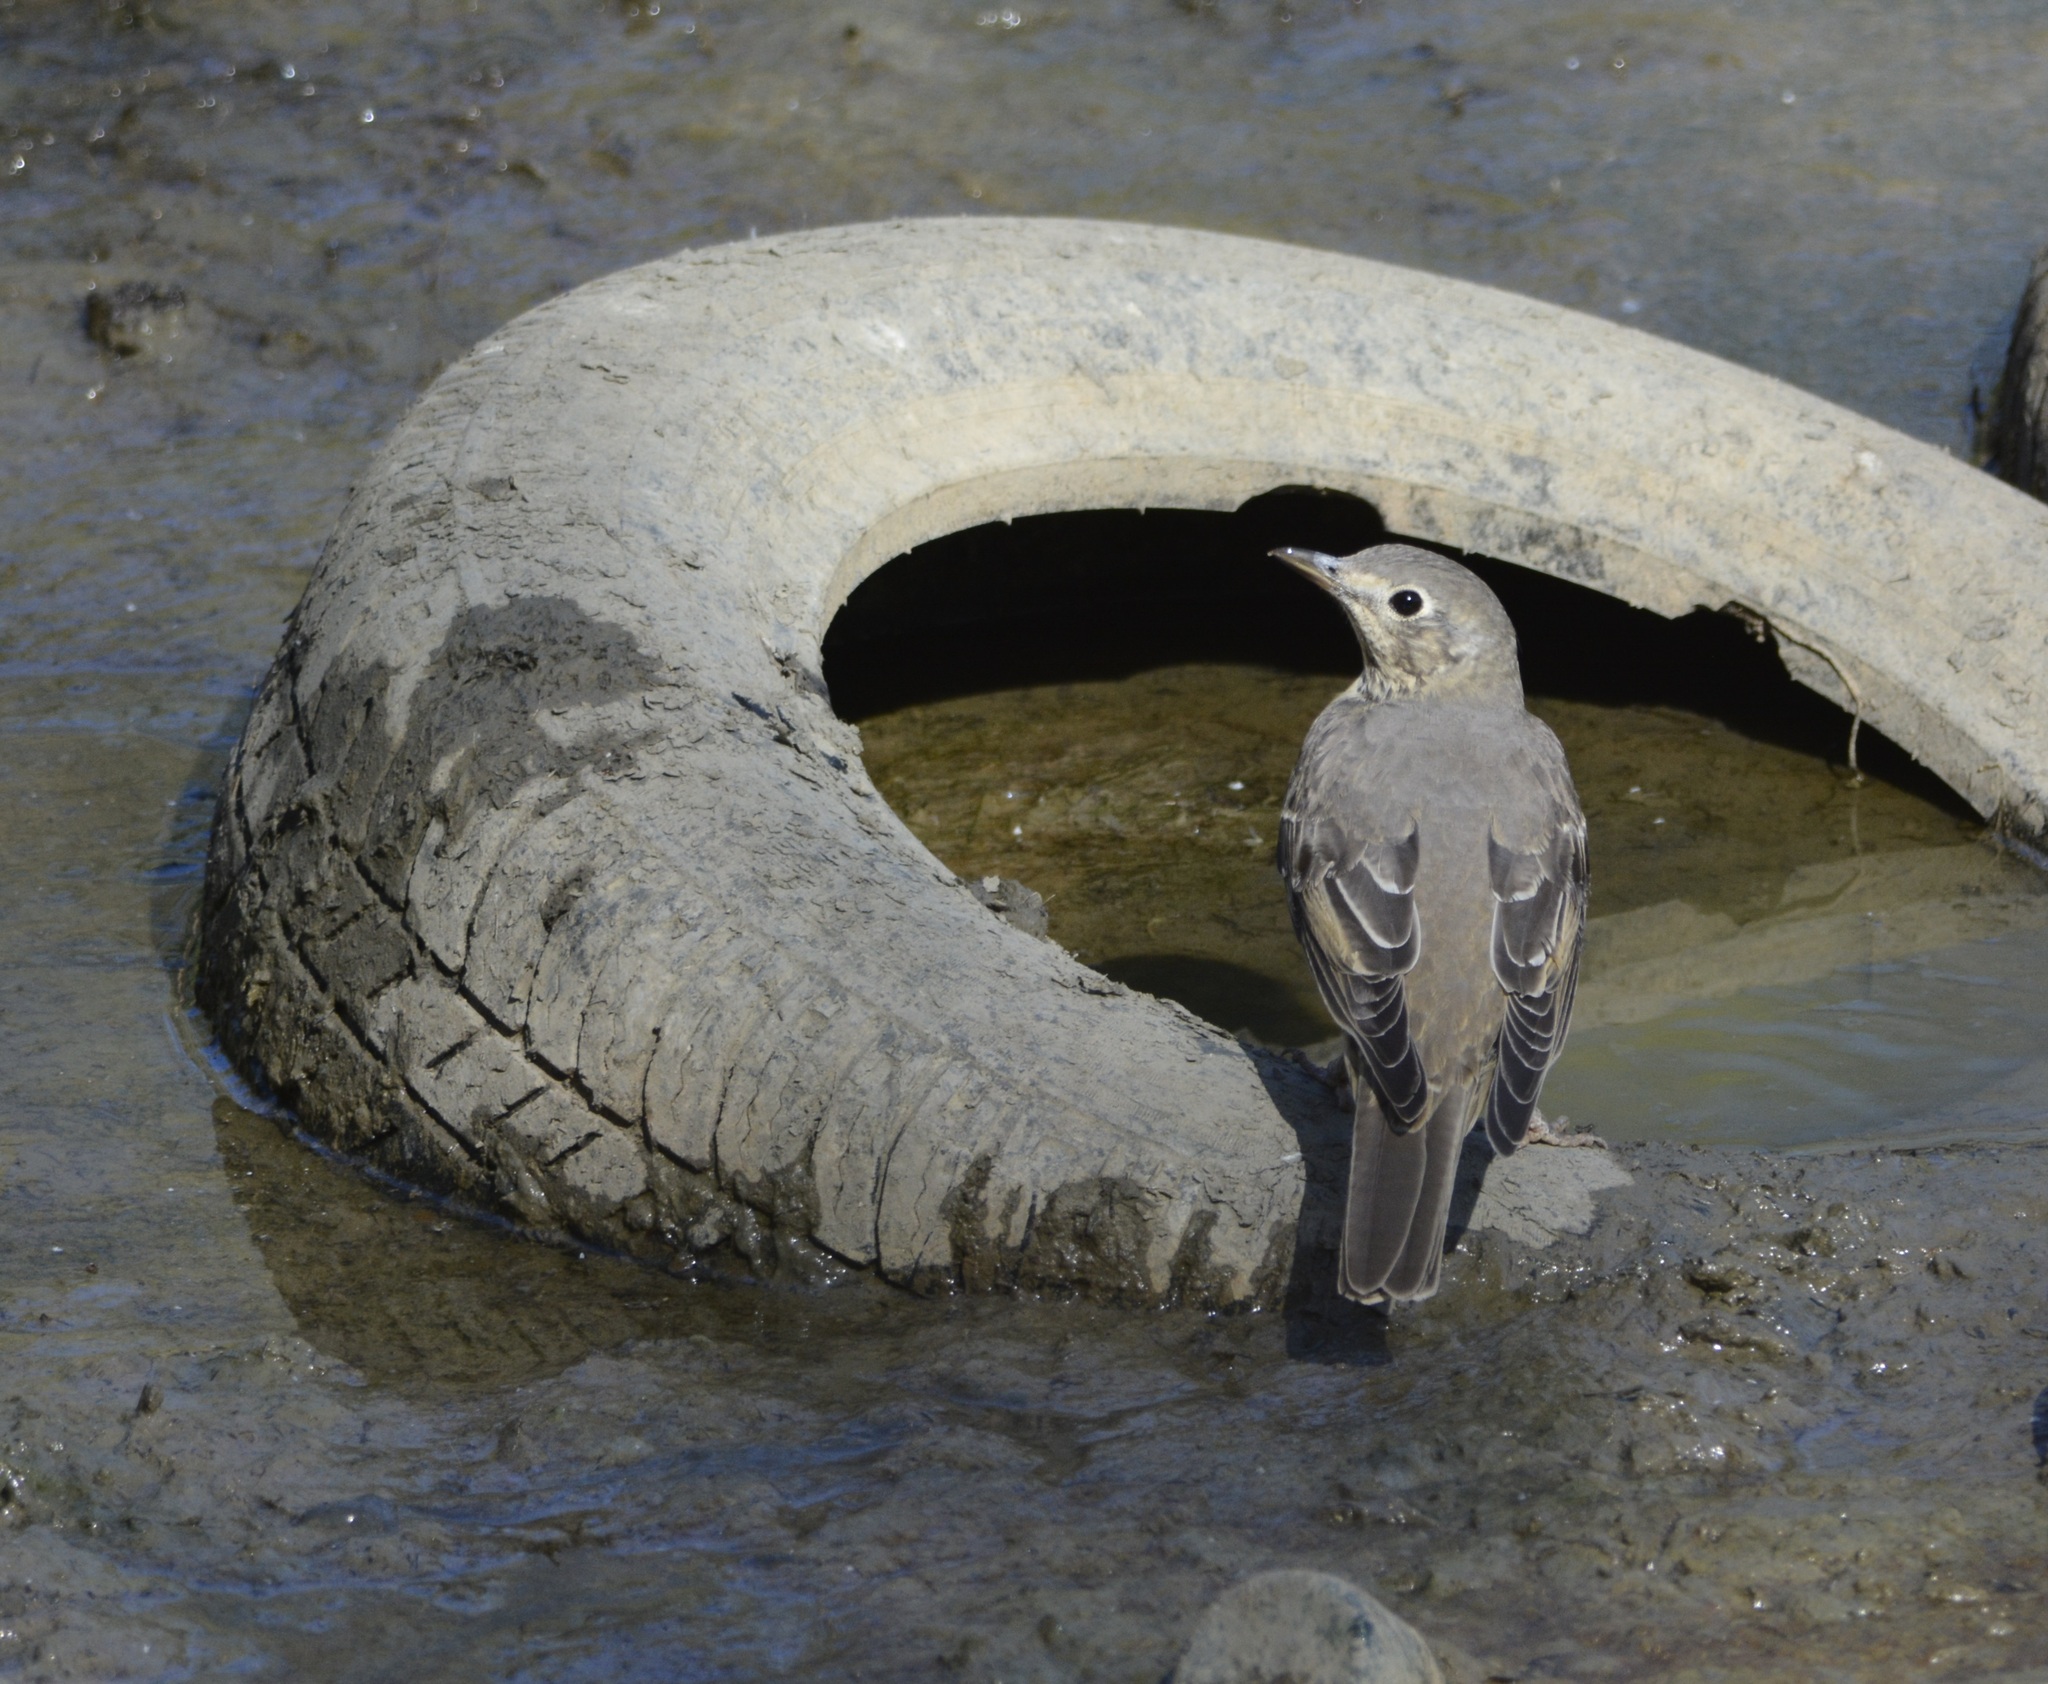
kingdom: Animalia
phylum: Chordata
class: Aves
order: Passeriformes
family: Turdidae
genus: Turdus
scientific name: Turdus viscivorus
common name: Mistle thrush
